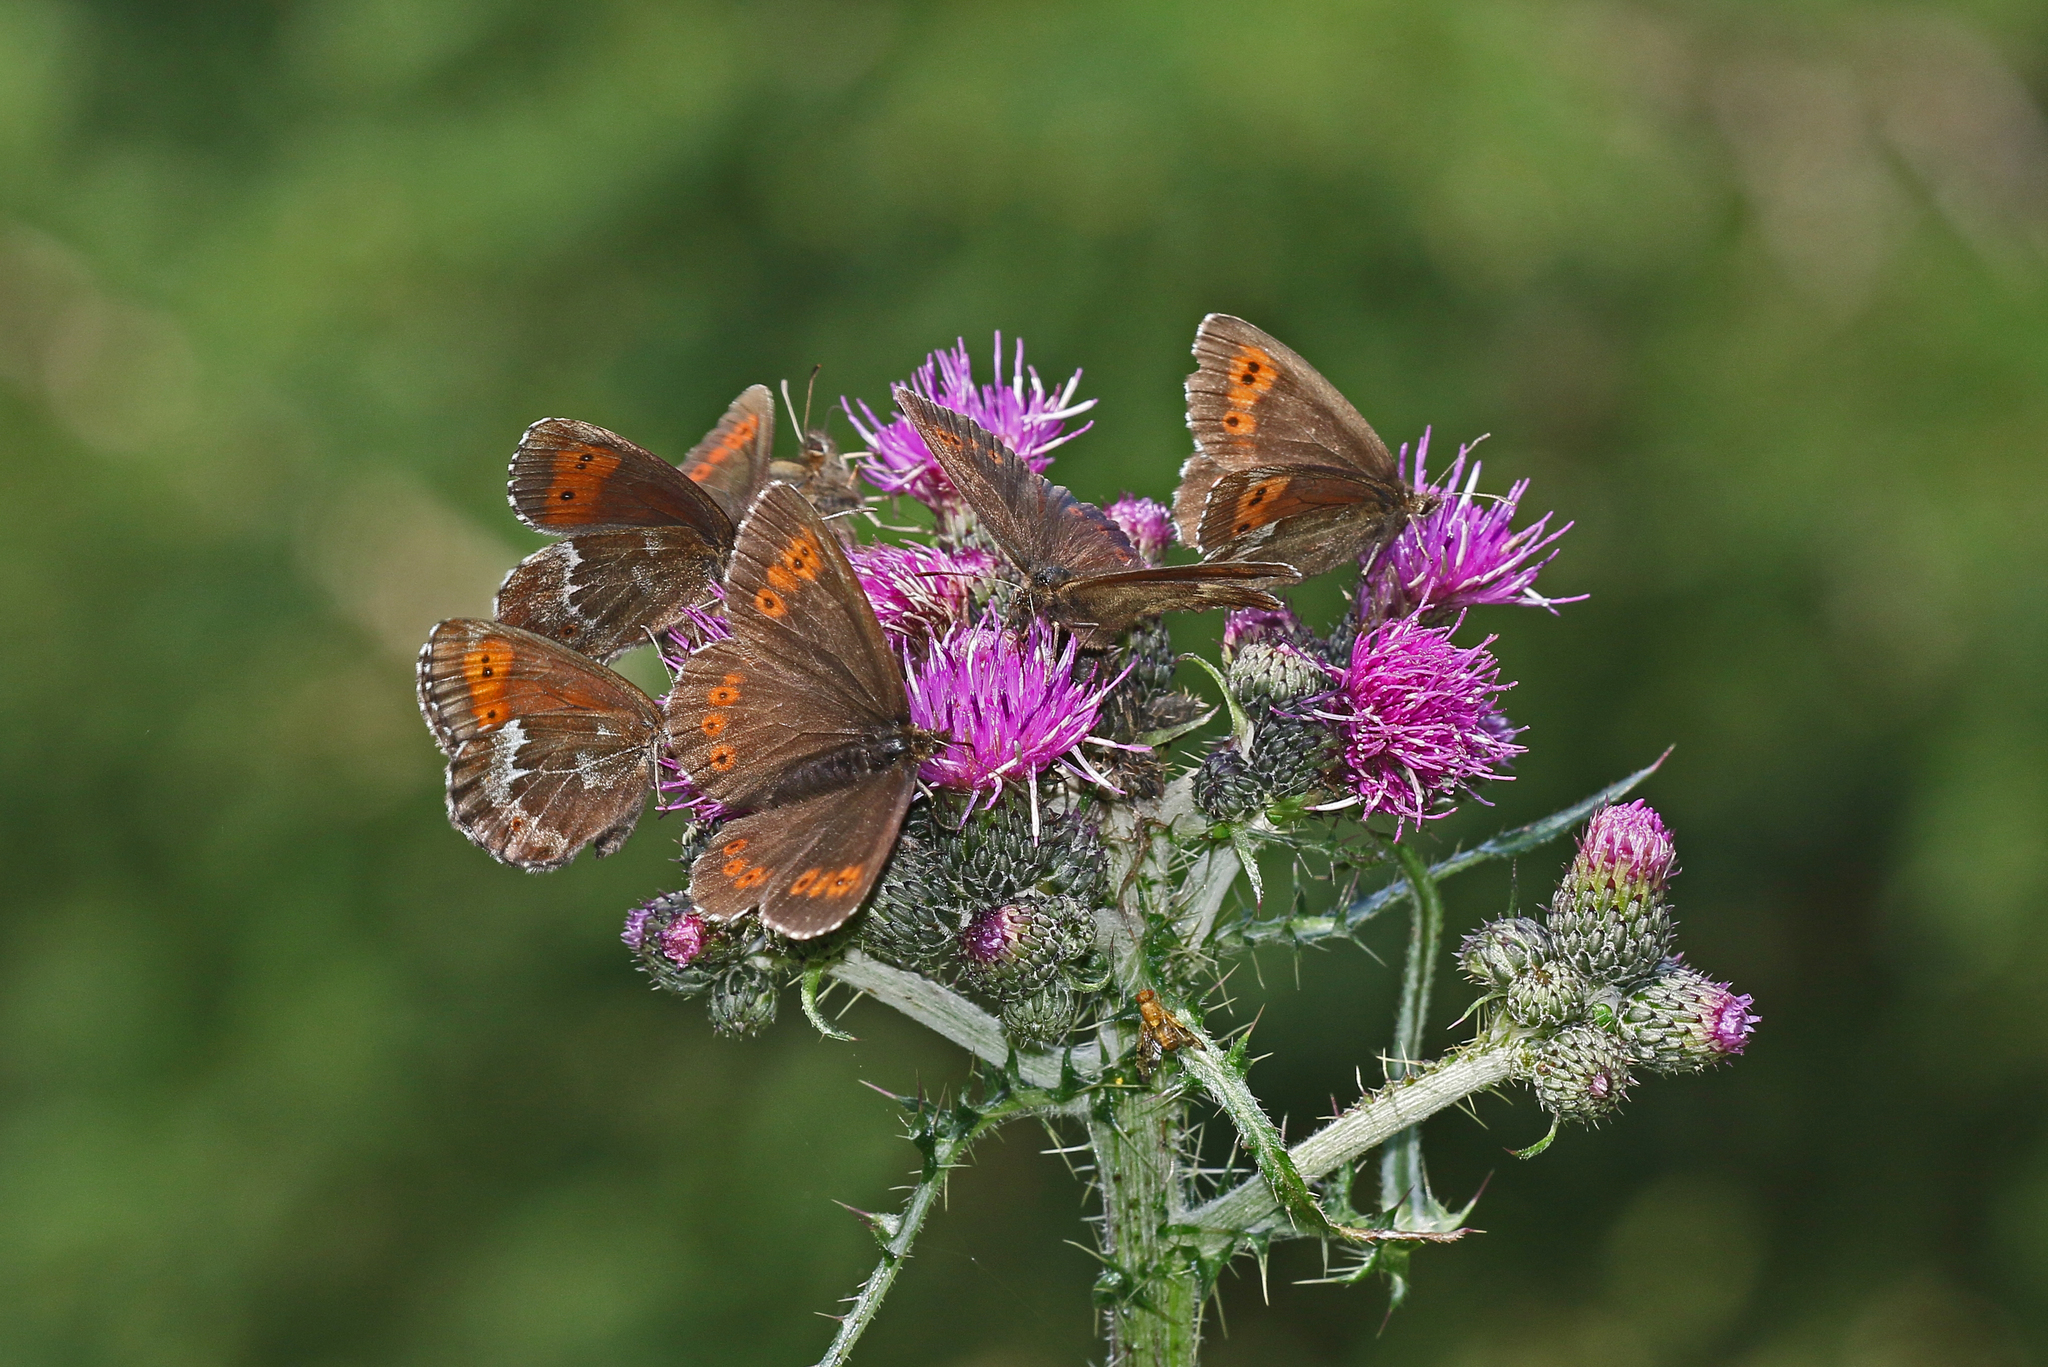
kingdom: Animalia
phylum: Arthropoda
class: Insecta
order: Lepidoptera
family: Nymphalidae
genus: Erebia
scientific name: Erebia euryale
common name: Large ringlet
